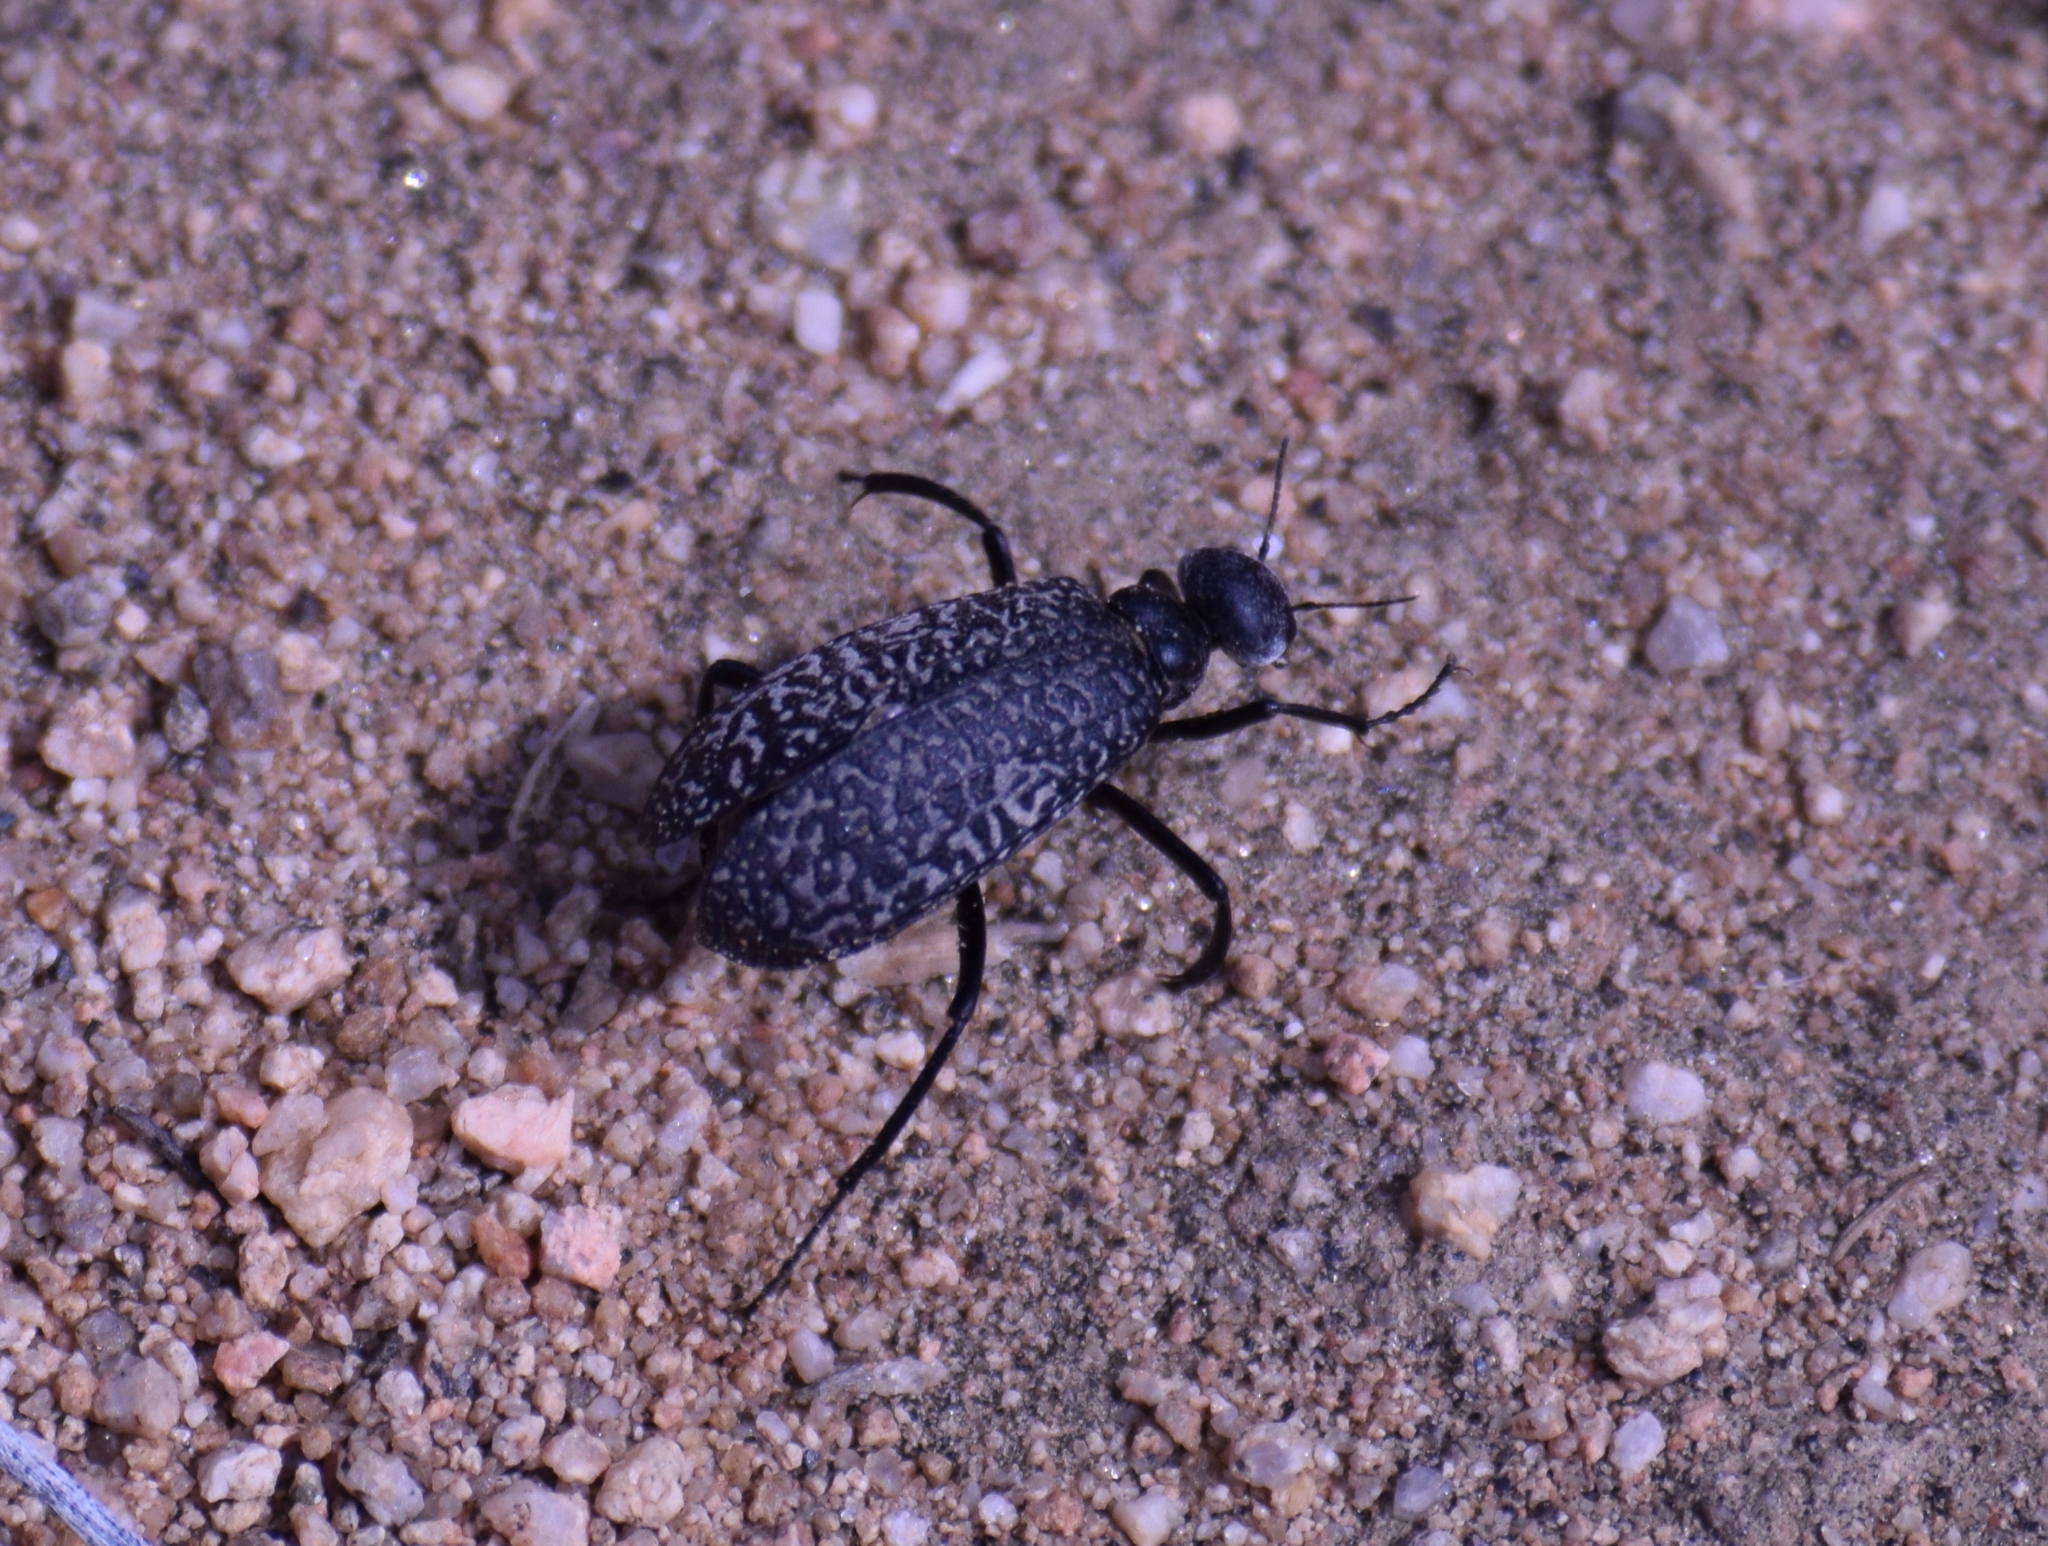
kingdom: Animalia
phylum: Arthropoda
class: Insecta
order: Coleoptera
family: Meloidae
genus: Phodaga
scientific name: Phodaga marmorata
